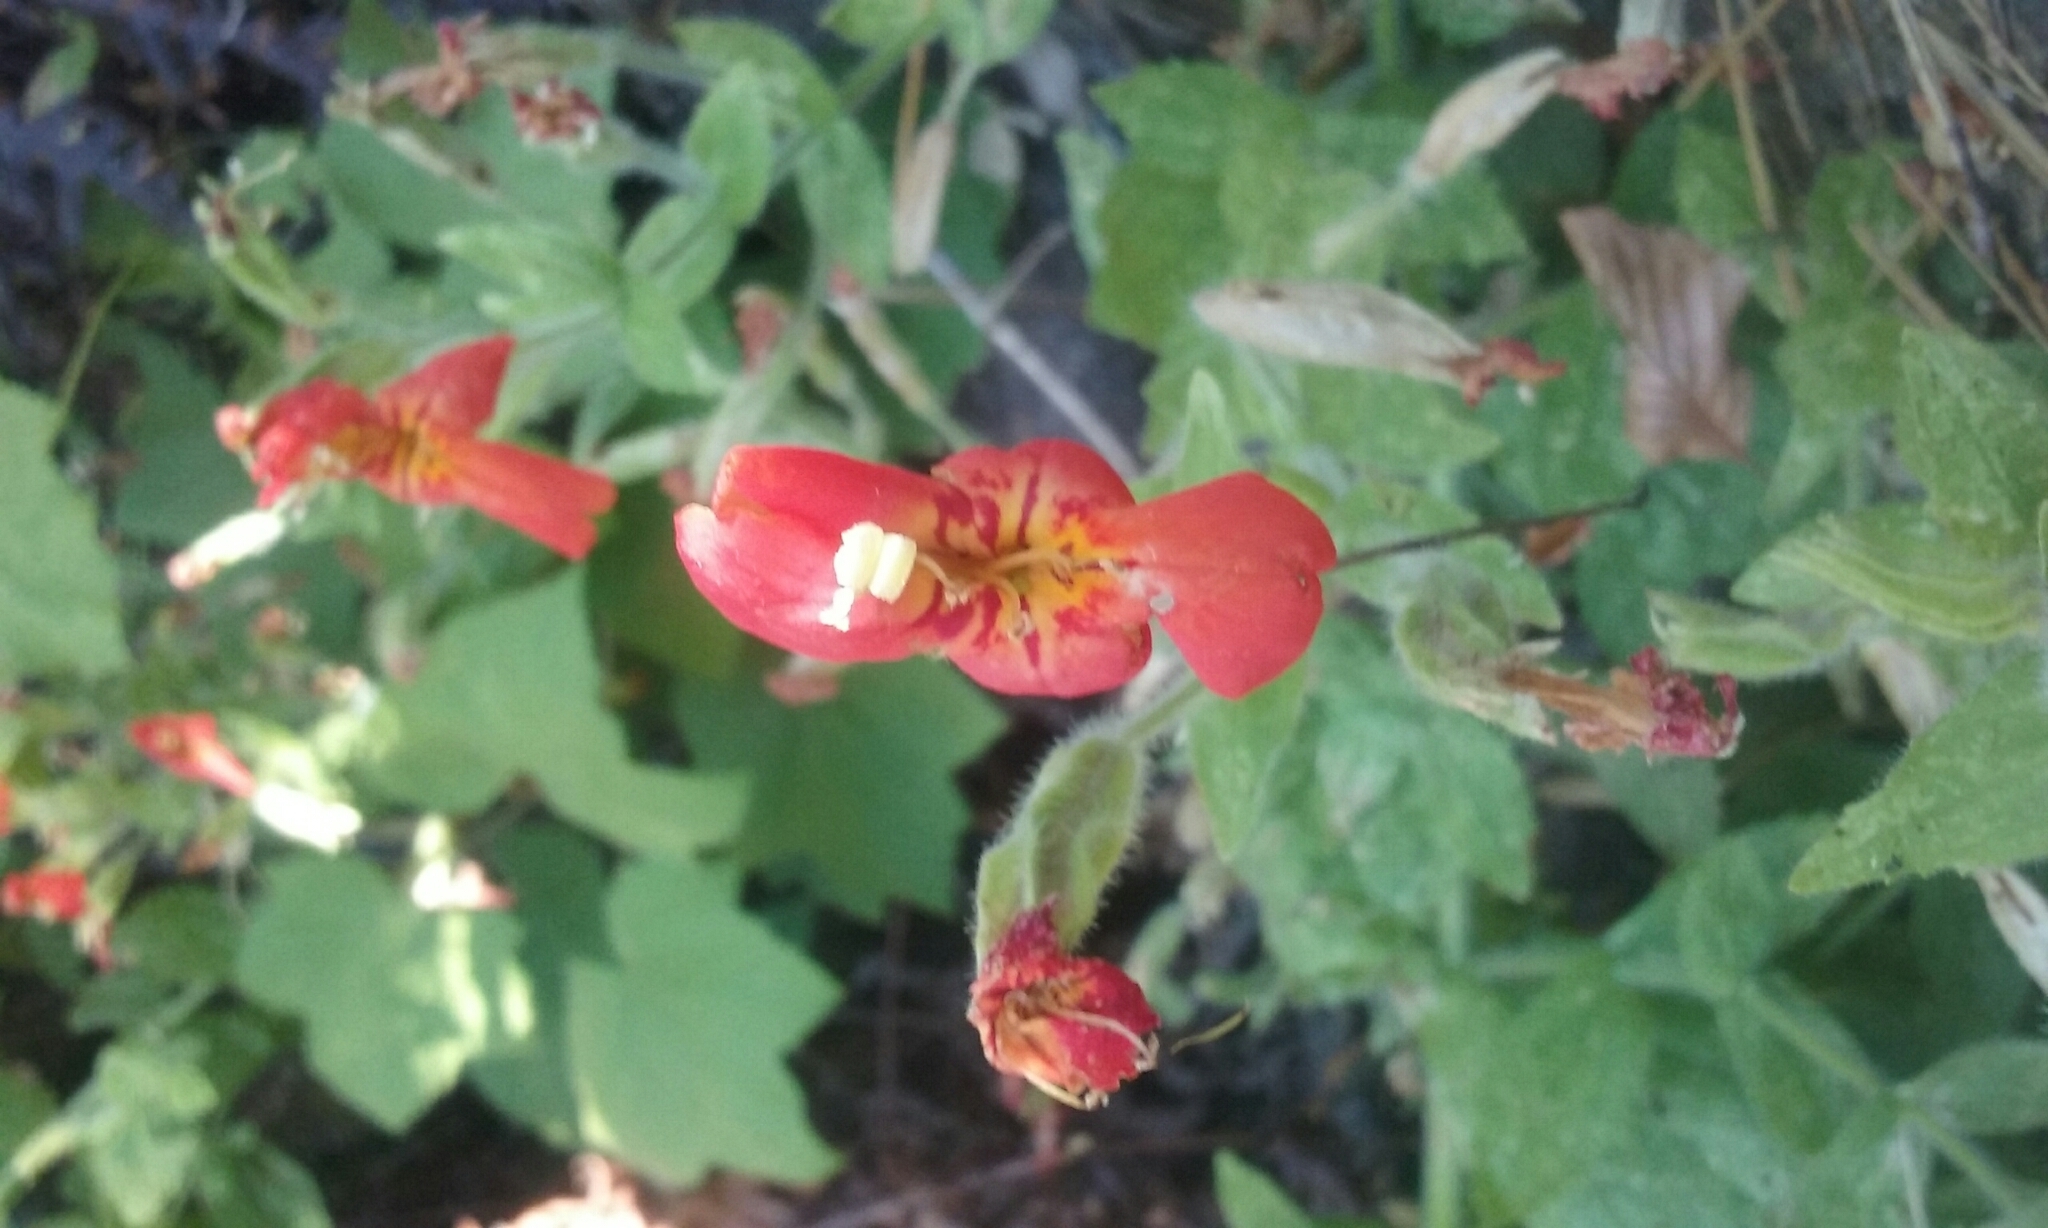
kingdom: Plantae
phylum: Tracheophyta
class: Magnoliopsida
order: Lamiales
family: Phrymaceae
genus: Erythranthe
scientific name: Erythranthe cardinalis
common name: Scarlet monkey-flower
